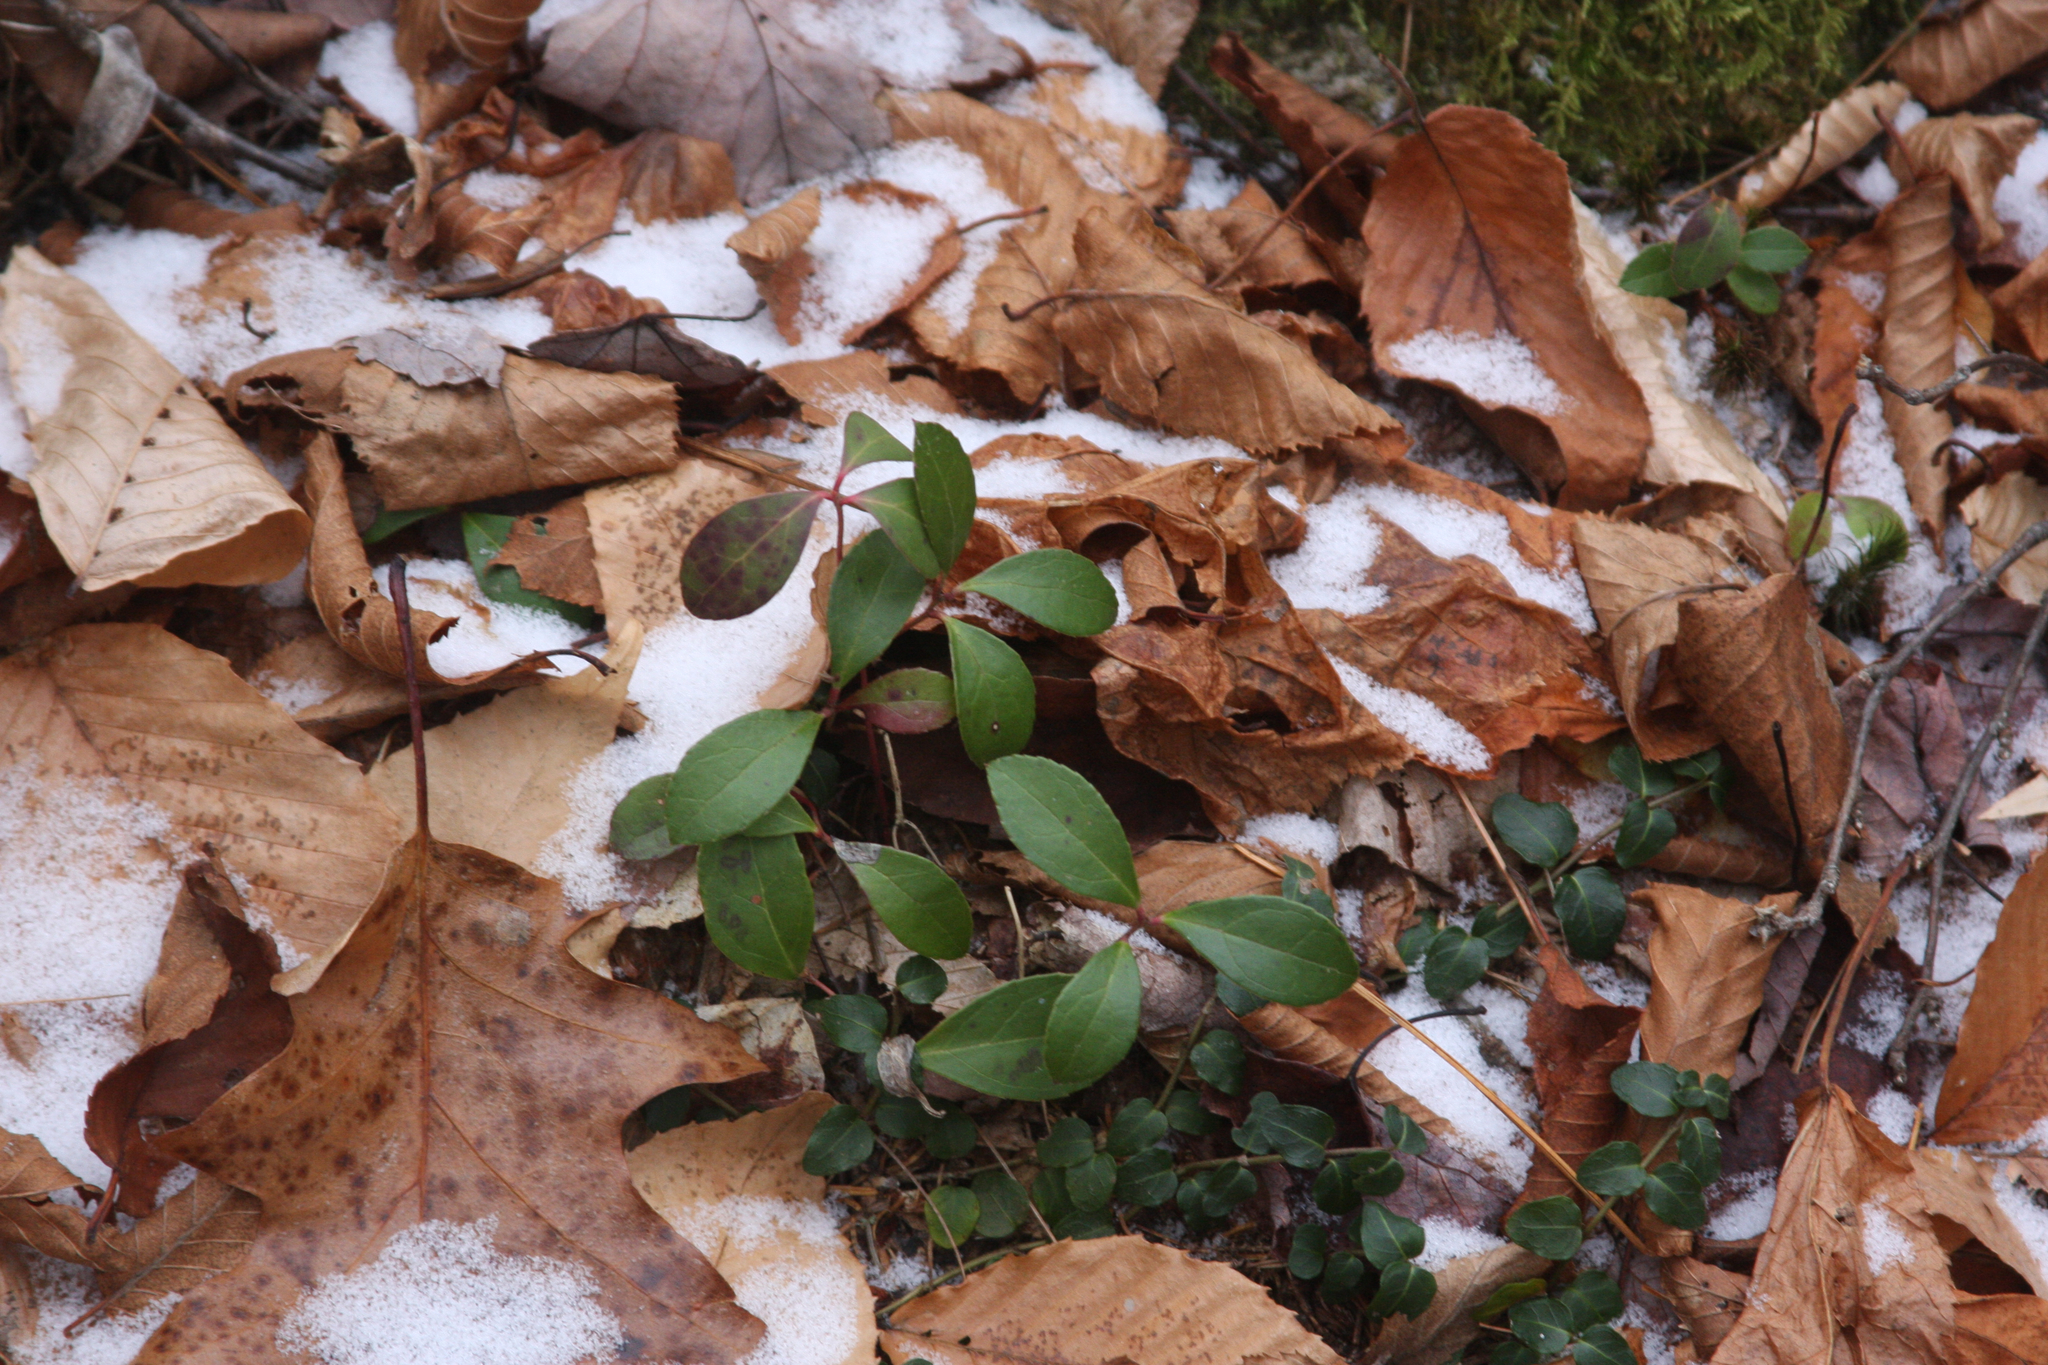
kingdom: Plantae
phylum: Tracheophyta
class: Magnoliopsida
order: Ericales
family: Ericaceae
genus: Gaultheria
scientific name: Gaultheria procumbens
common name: Checkerberry
